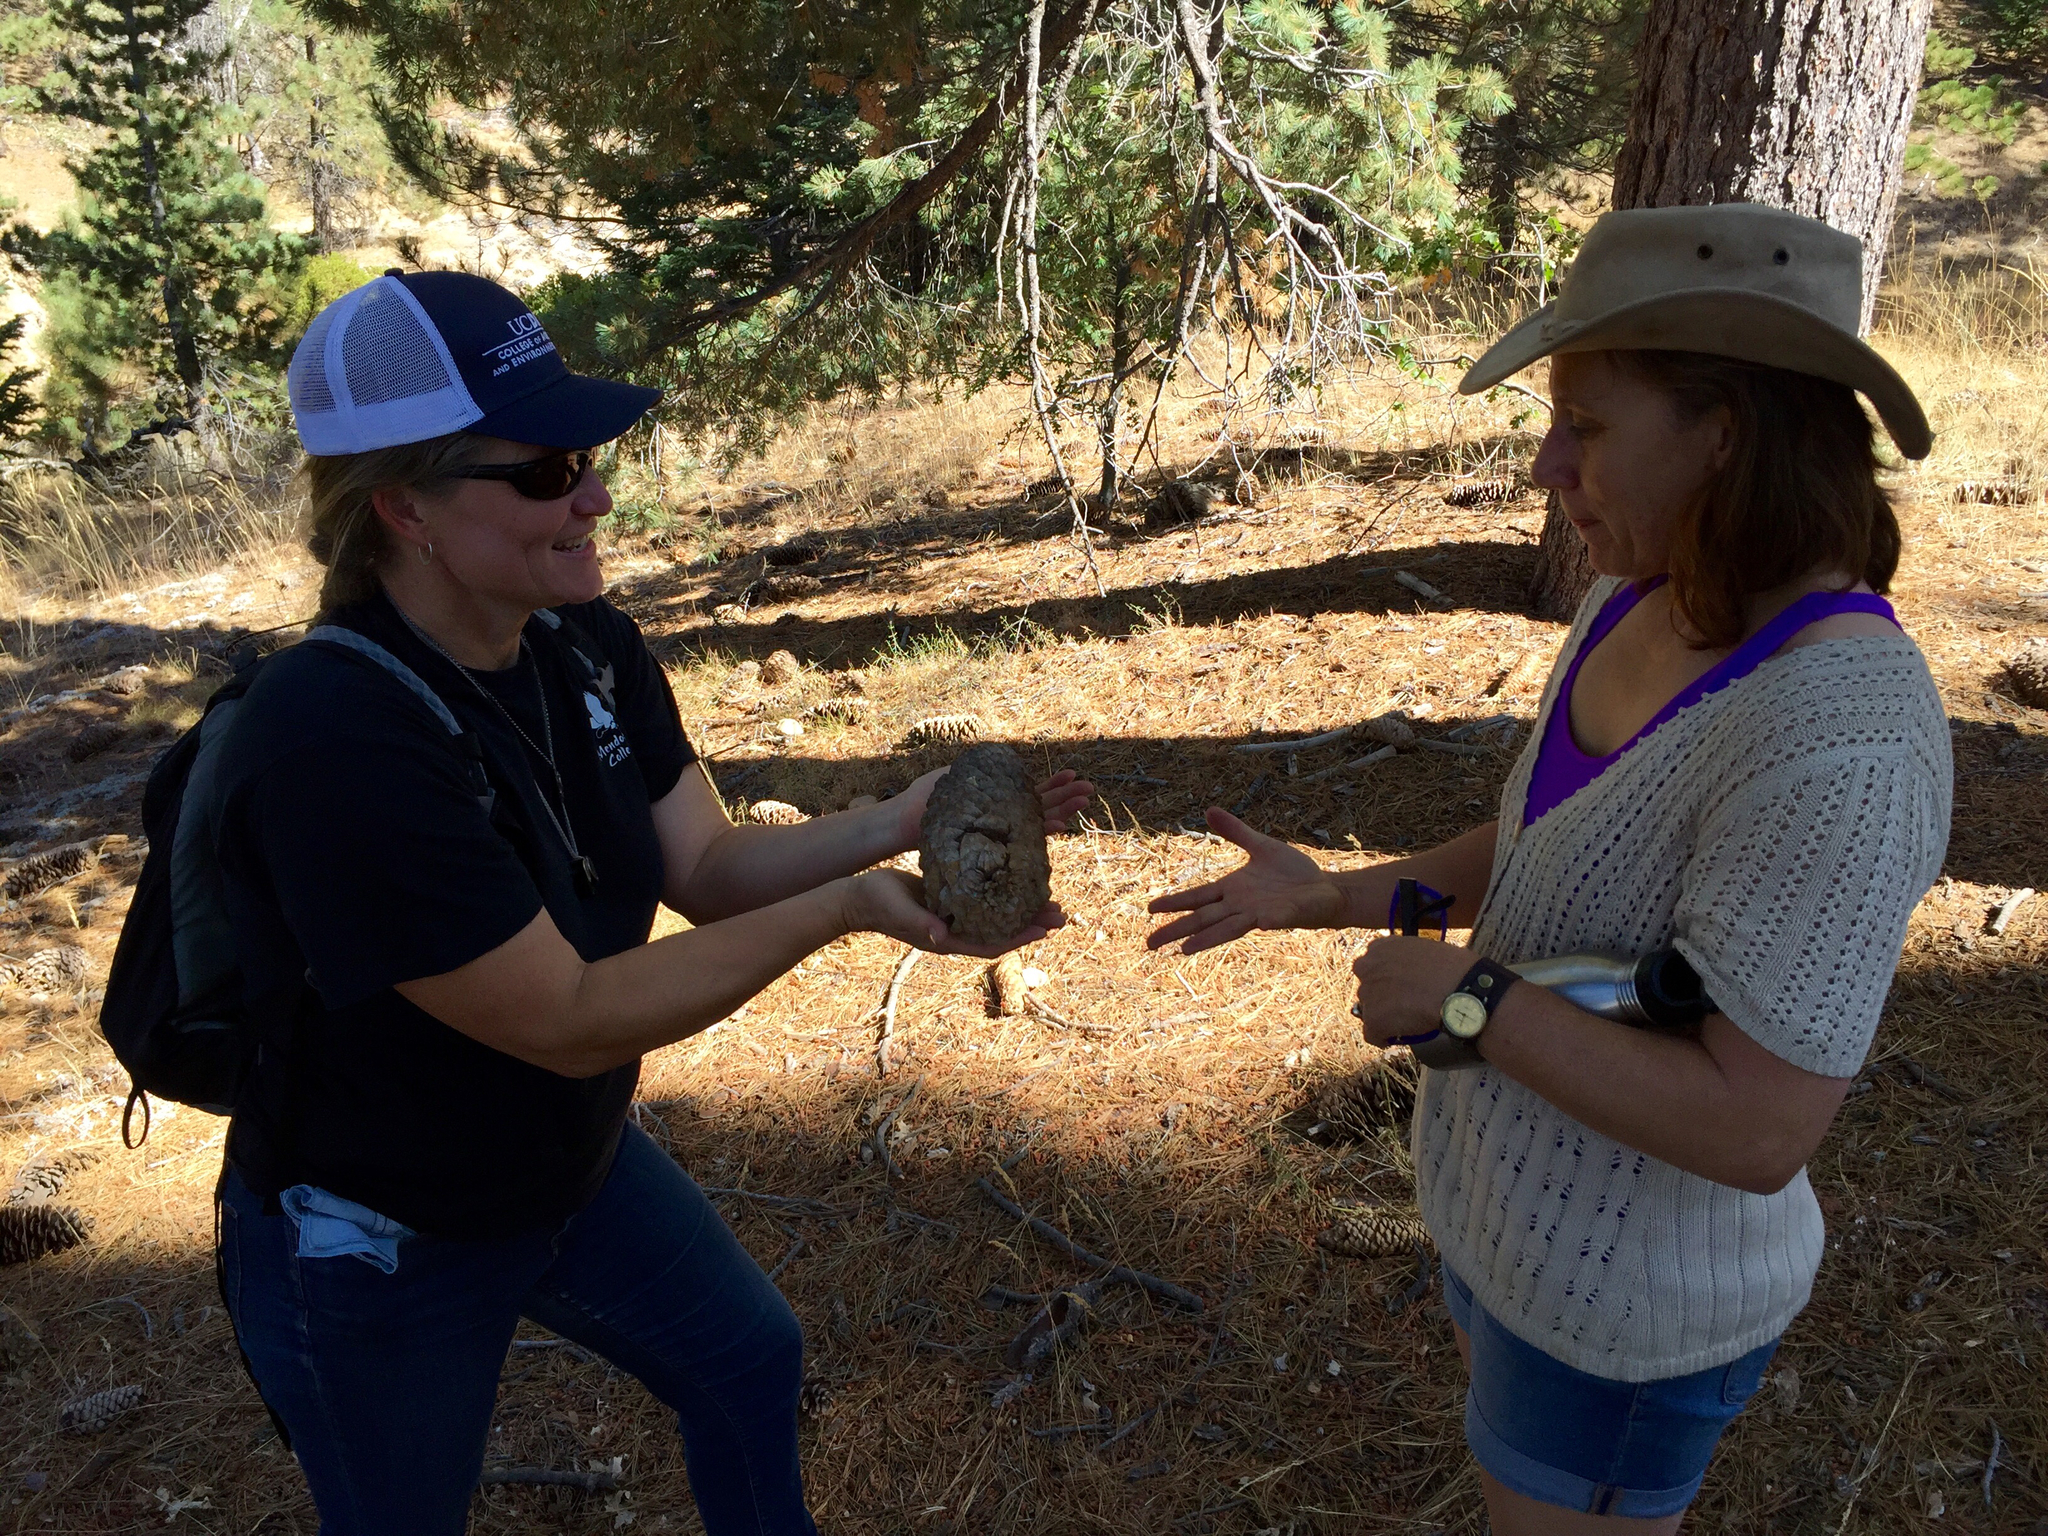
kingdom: Plantae
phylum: Tracheophyta
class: Pinopsida
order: Pinales
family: Pinaceae
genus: Pinus
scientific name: Pinus lambertiana
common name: Sugar pine
